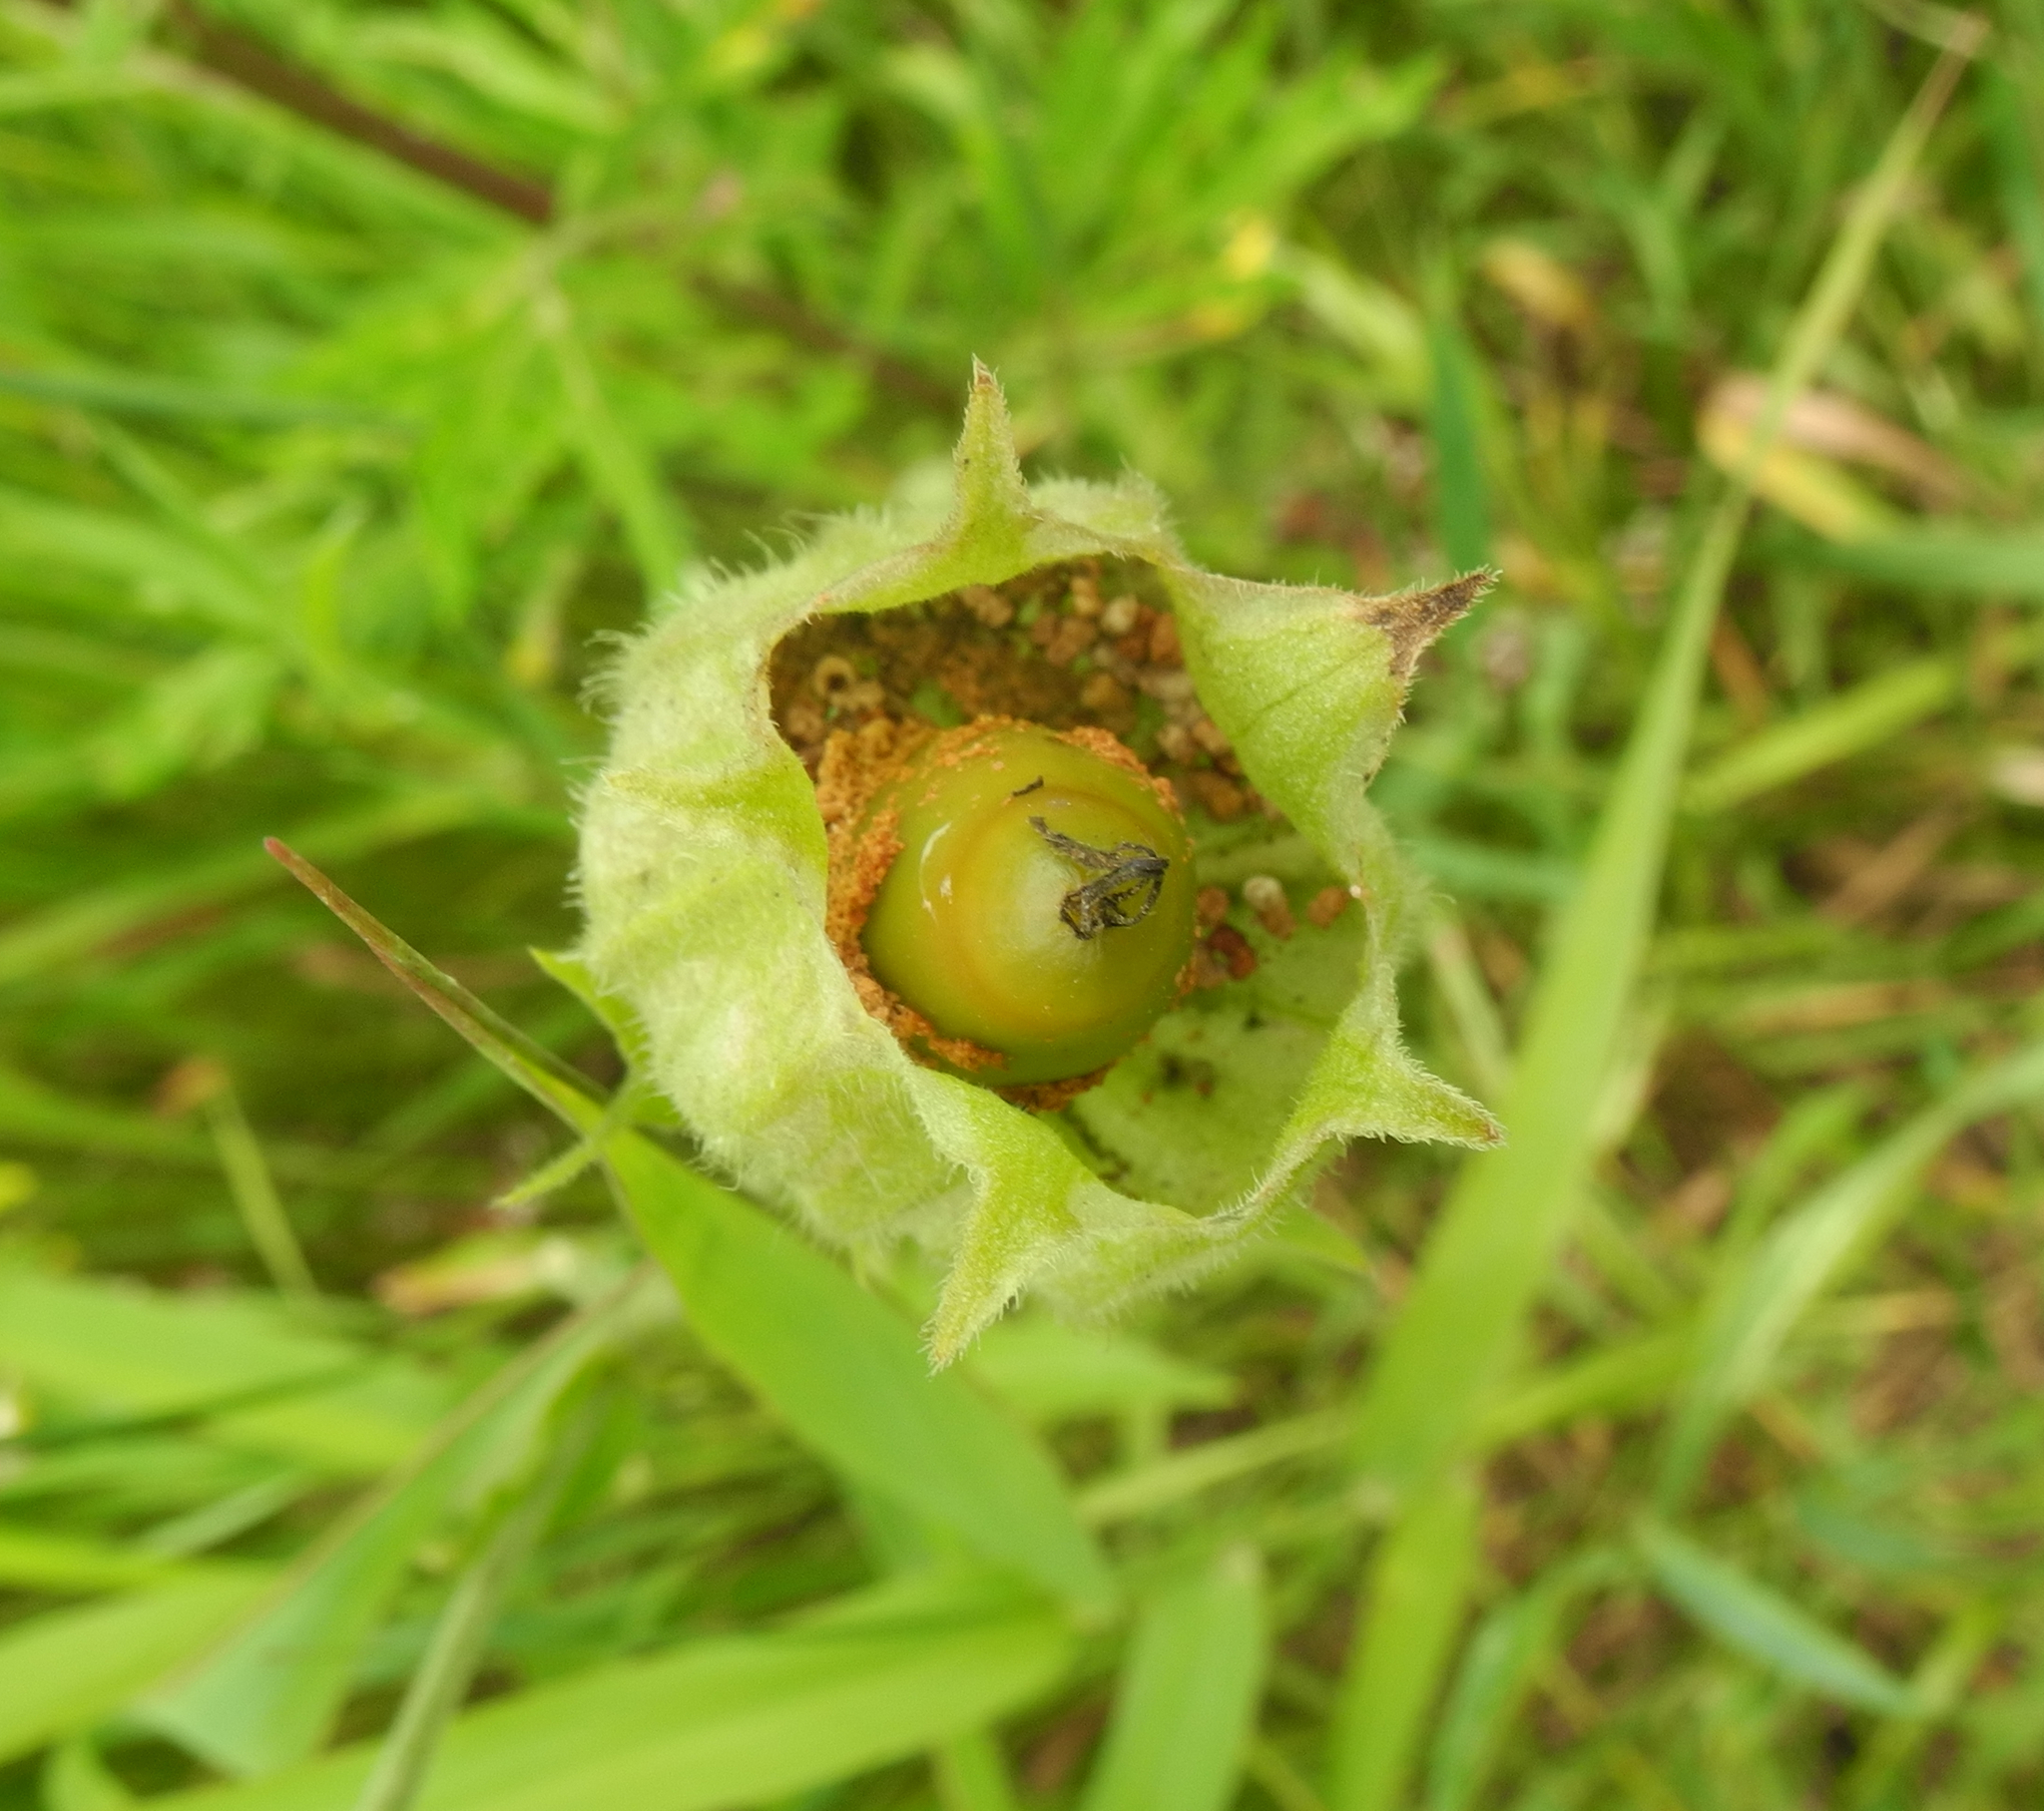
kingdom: Plantae
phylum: Tracheophyta
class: Magnoliopsida
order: Caryophyllales
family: Caryophyllaceae
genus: Silene
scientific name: Silene latifolia
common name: White campion
